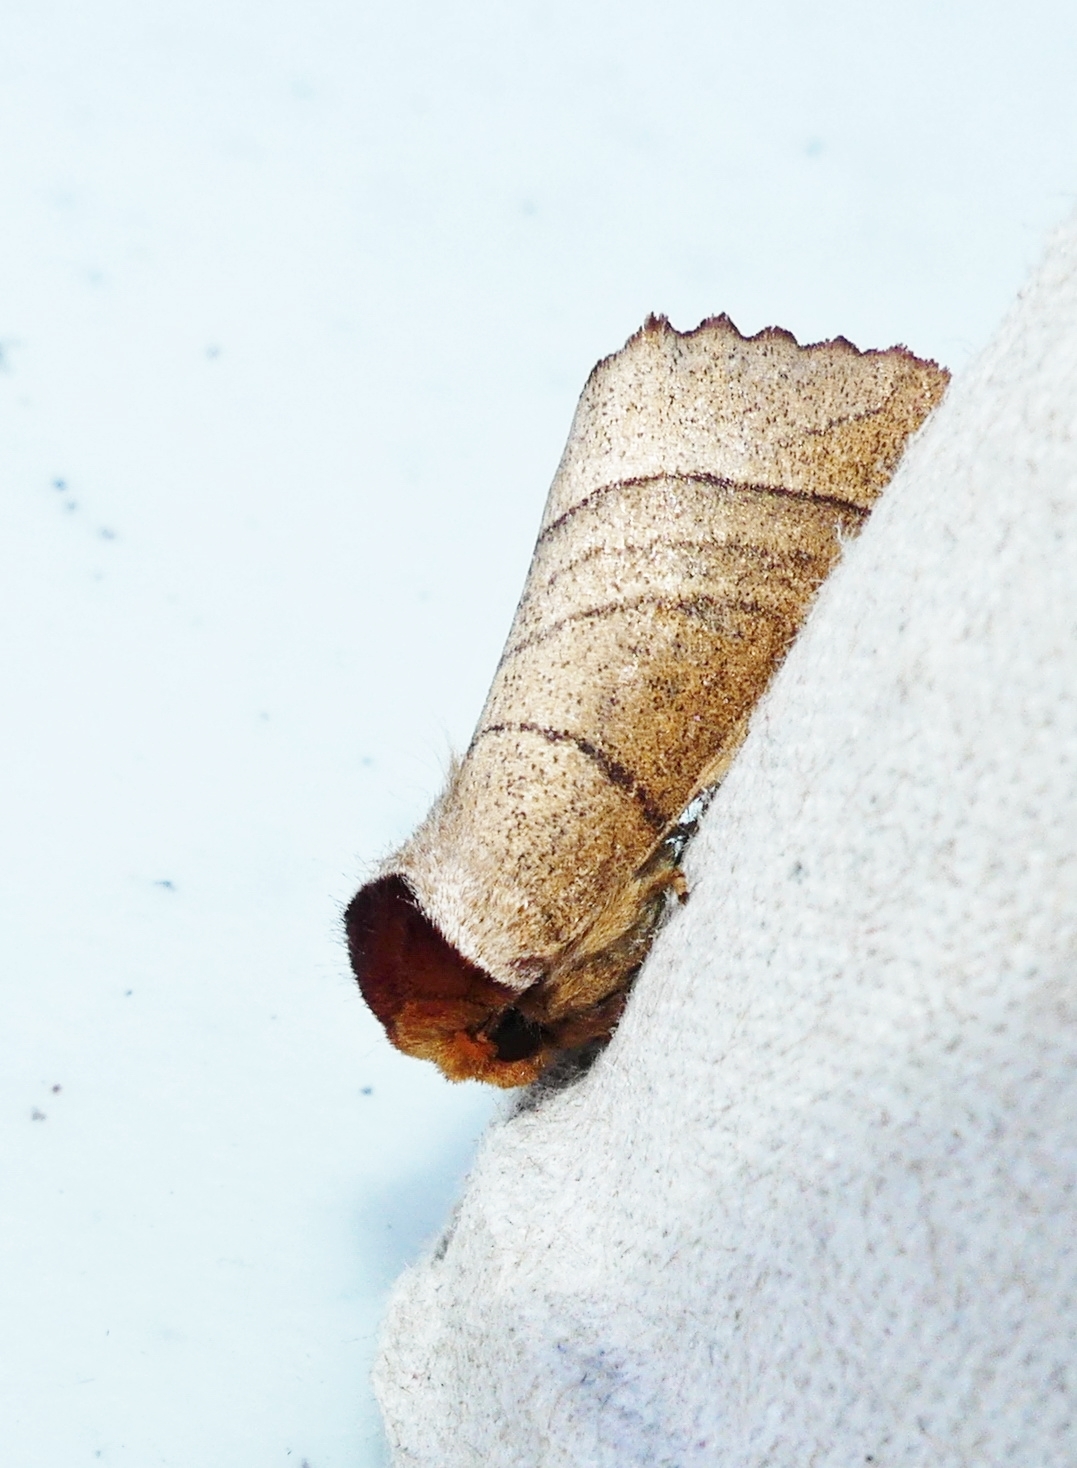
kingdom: Animalia
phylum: Arthropoda
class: Insecta
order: Lepidoptera
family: Notodontidae
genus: Datana
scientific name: Datana ministra
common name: Yellow-necked caterpillar moth
